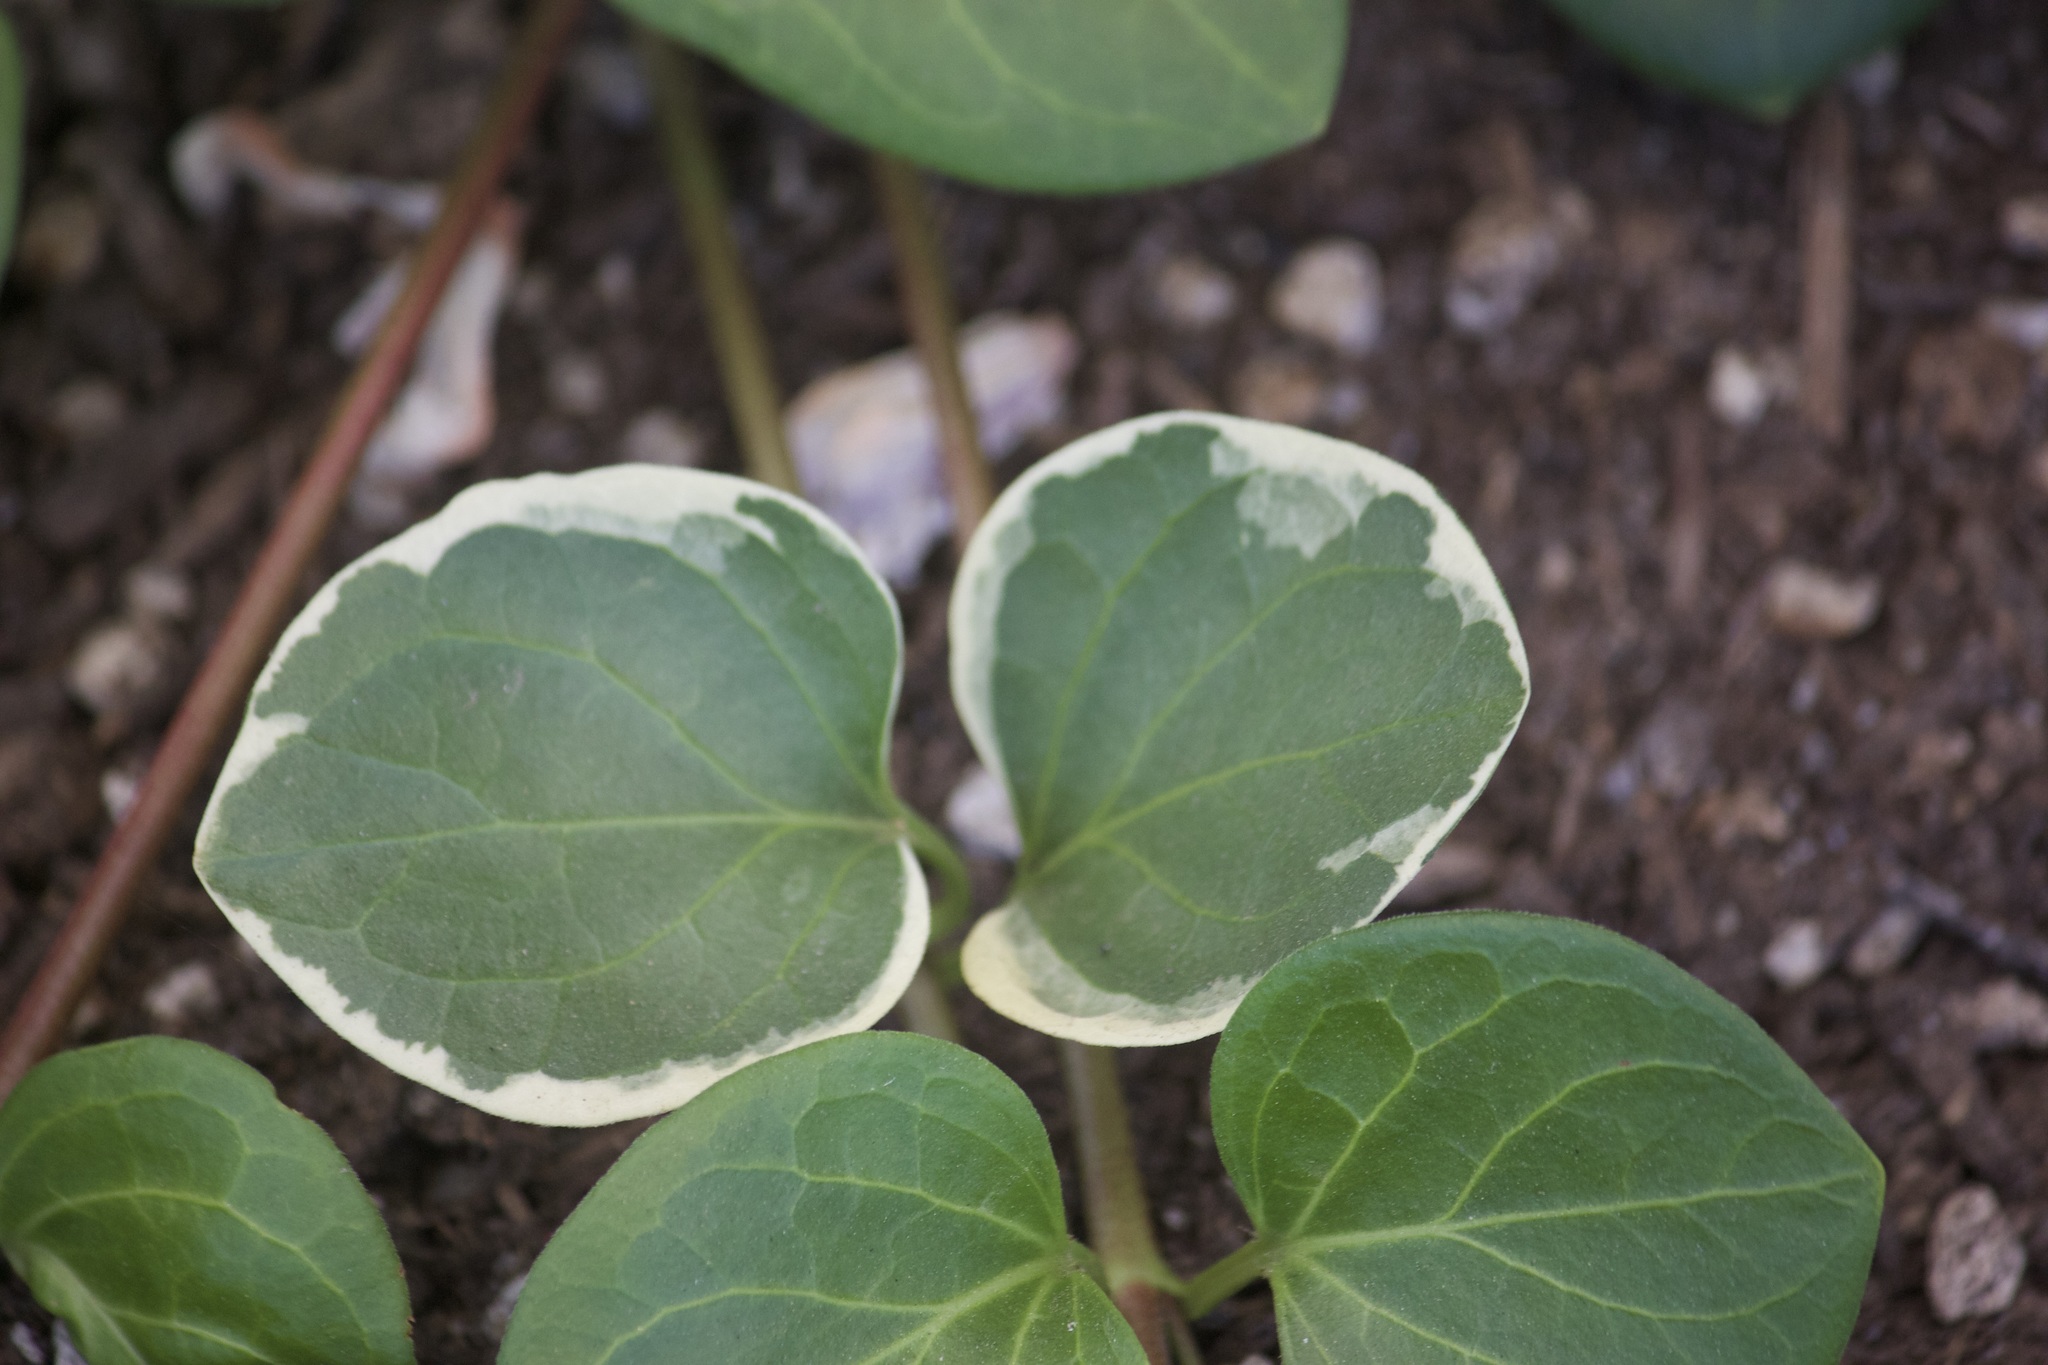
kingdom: Plantae
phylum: Tracheophyta
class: Magnoliopsida
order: Gentianales
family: Apocynaceae
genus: Vinca
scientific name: Vinca major
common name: Greater periwinkle
